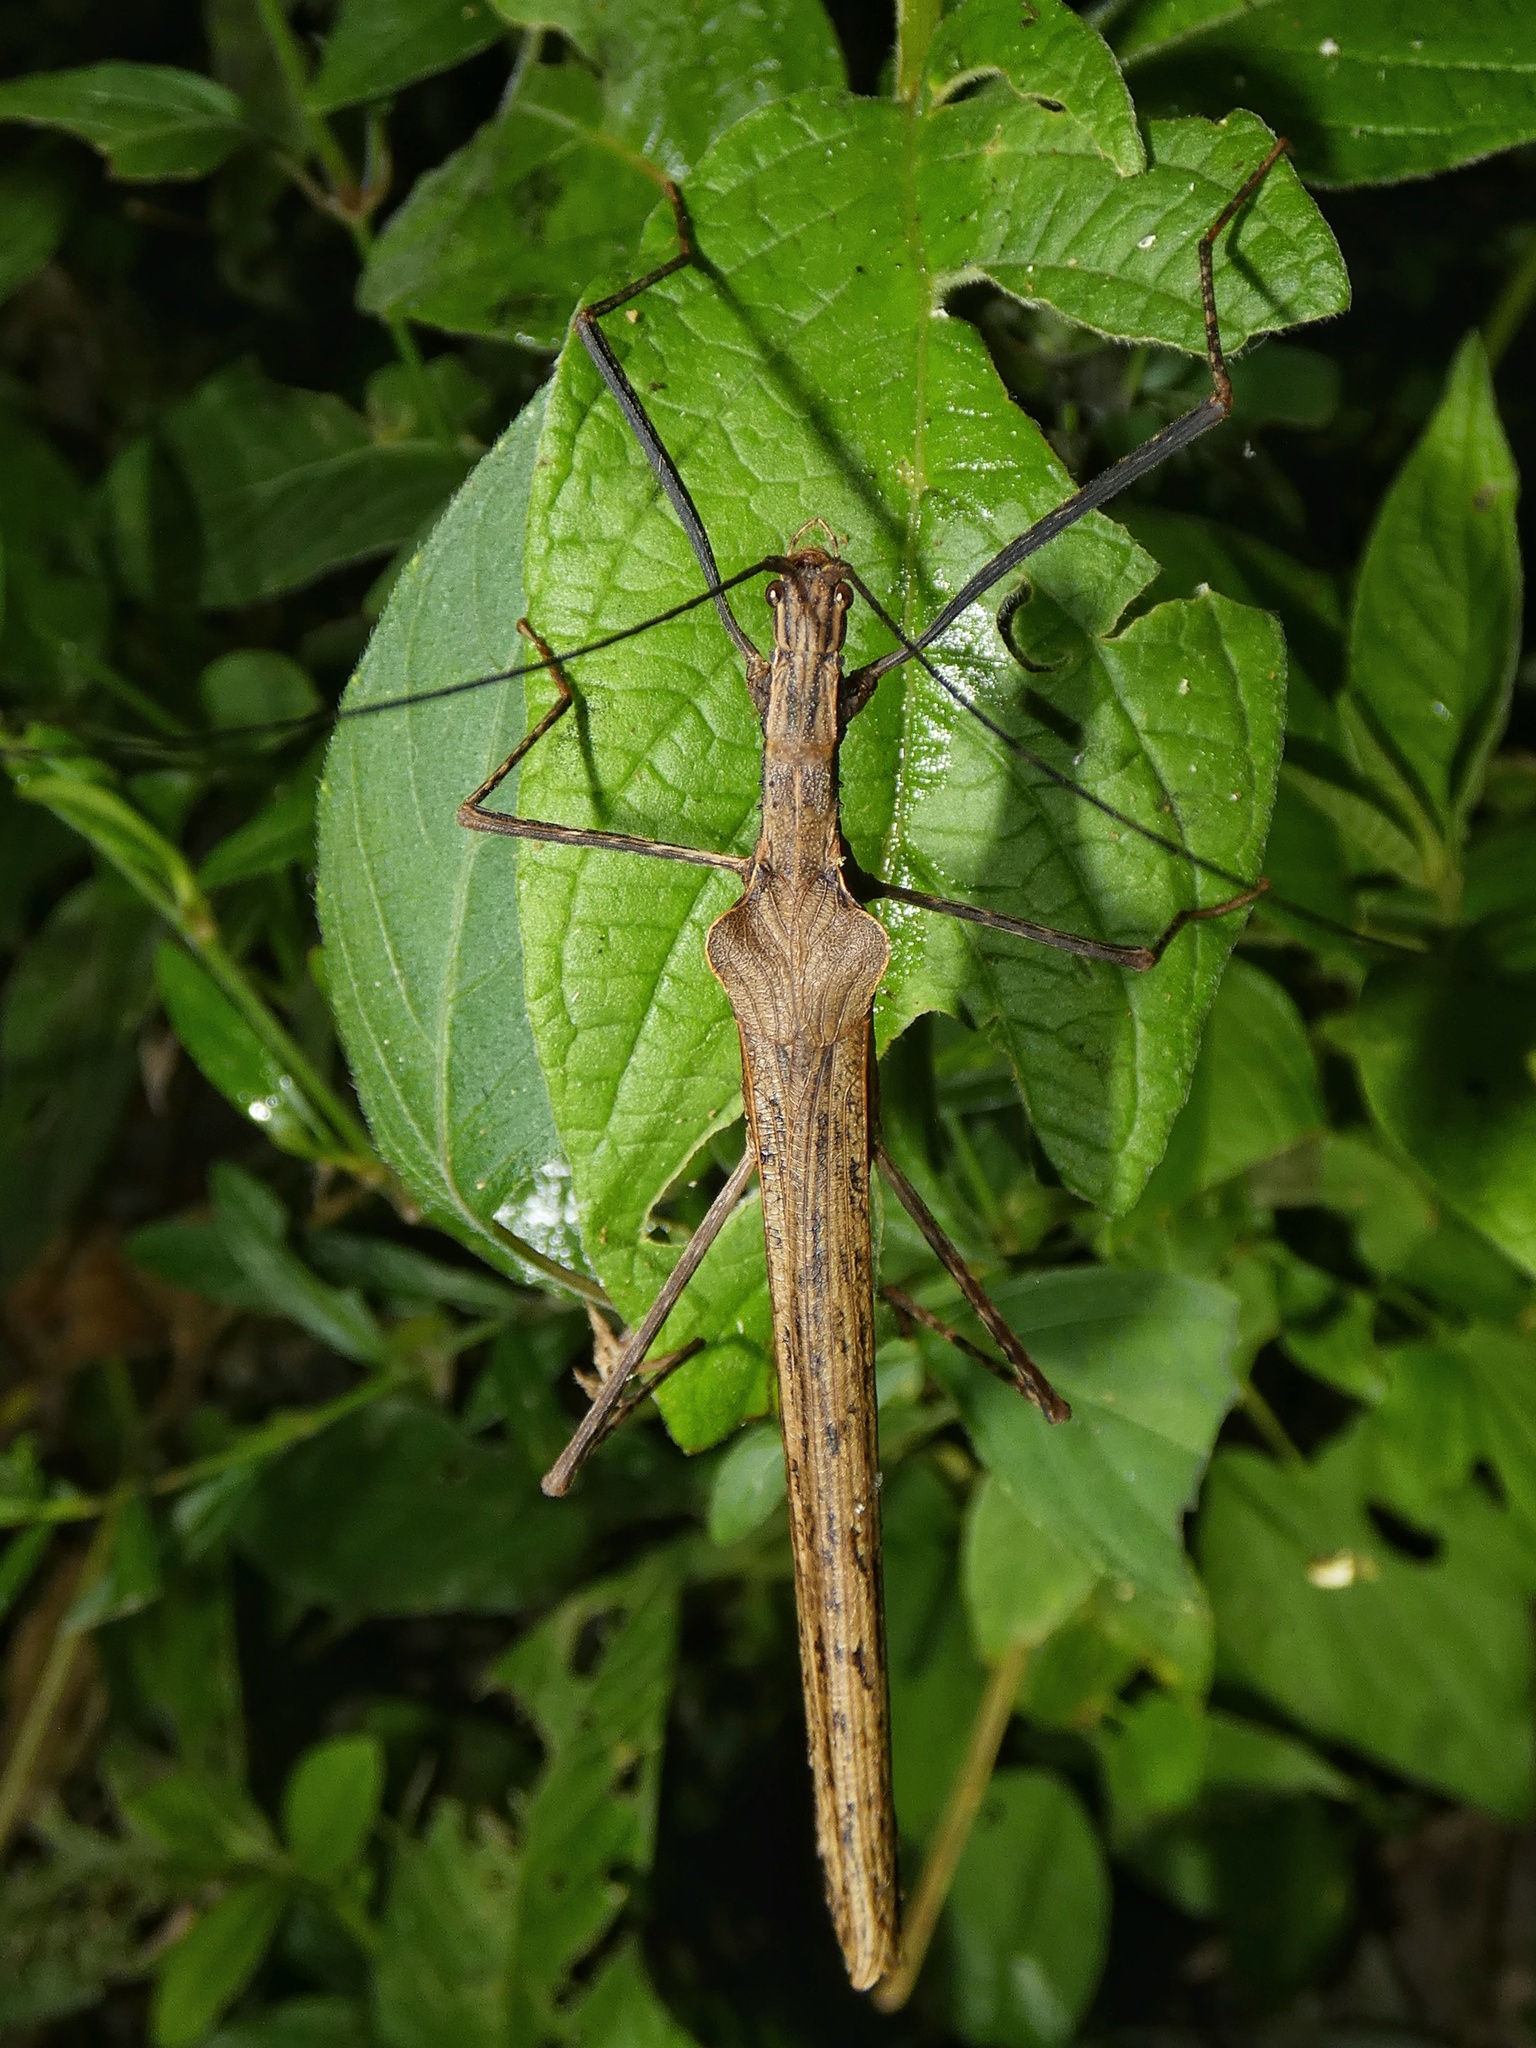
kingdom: Animalia
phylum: Arthropoda
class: Insecta
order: Phasmida
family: Pseudophasmatidae
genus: Pseudophasma
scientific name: Pseudophasma unicolor
